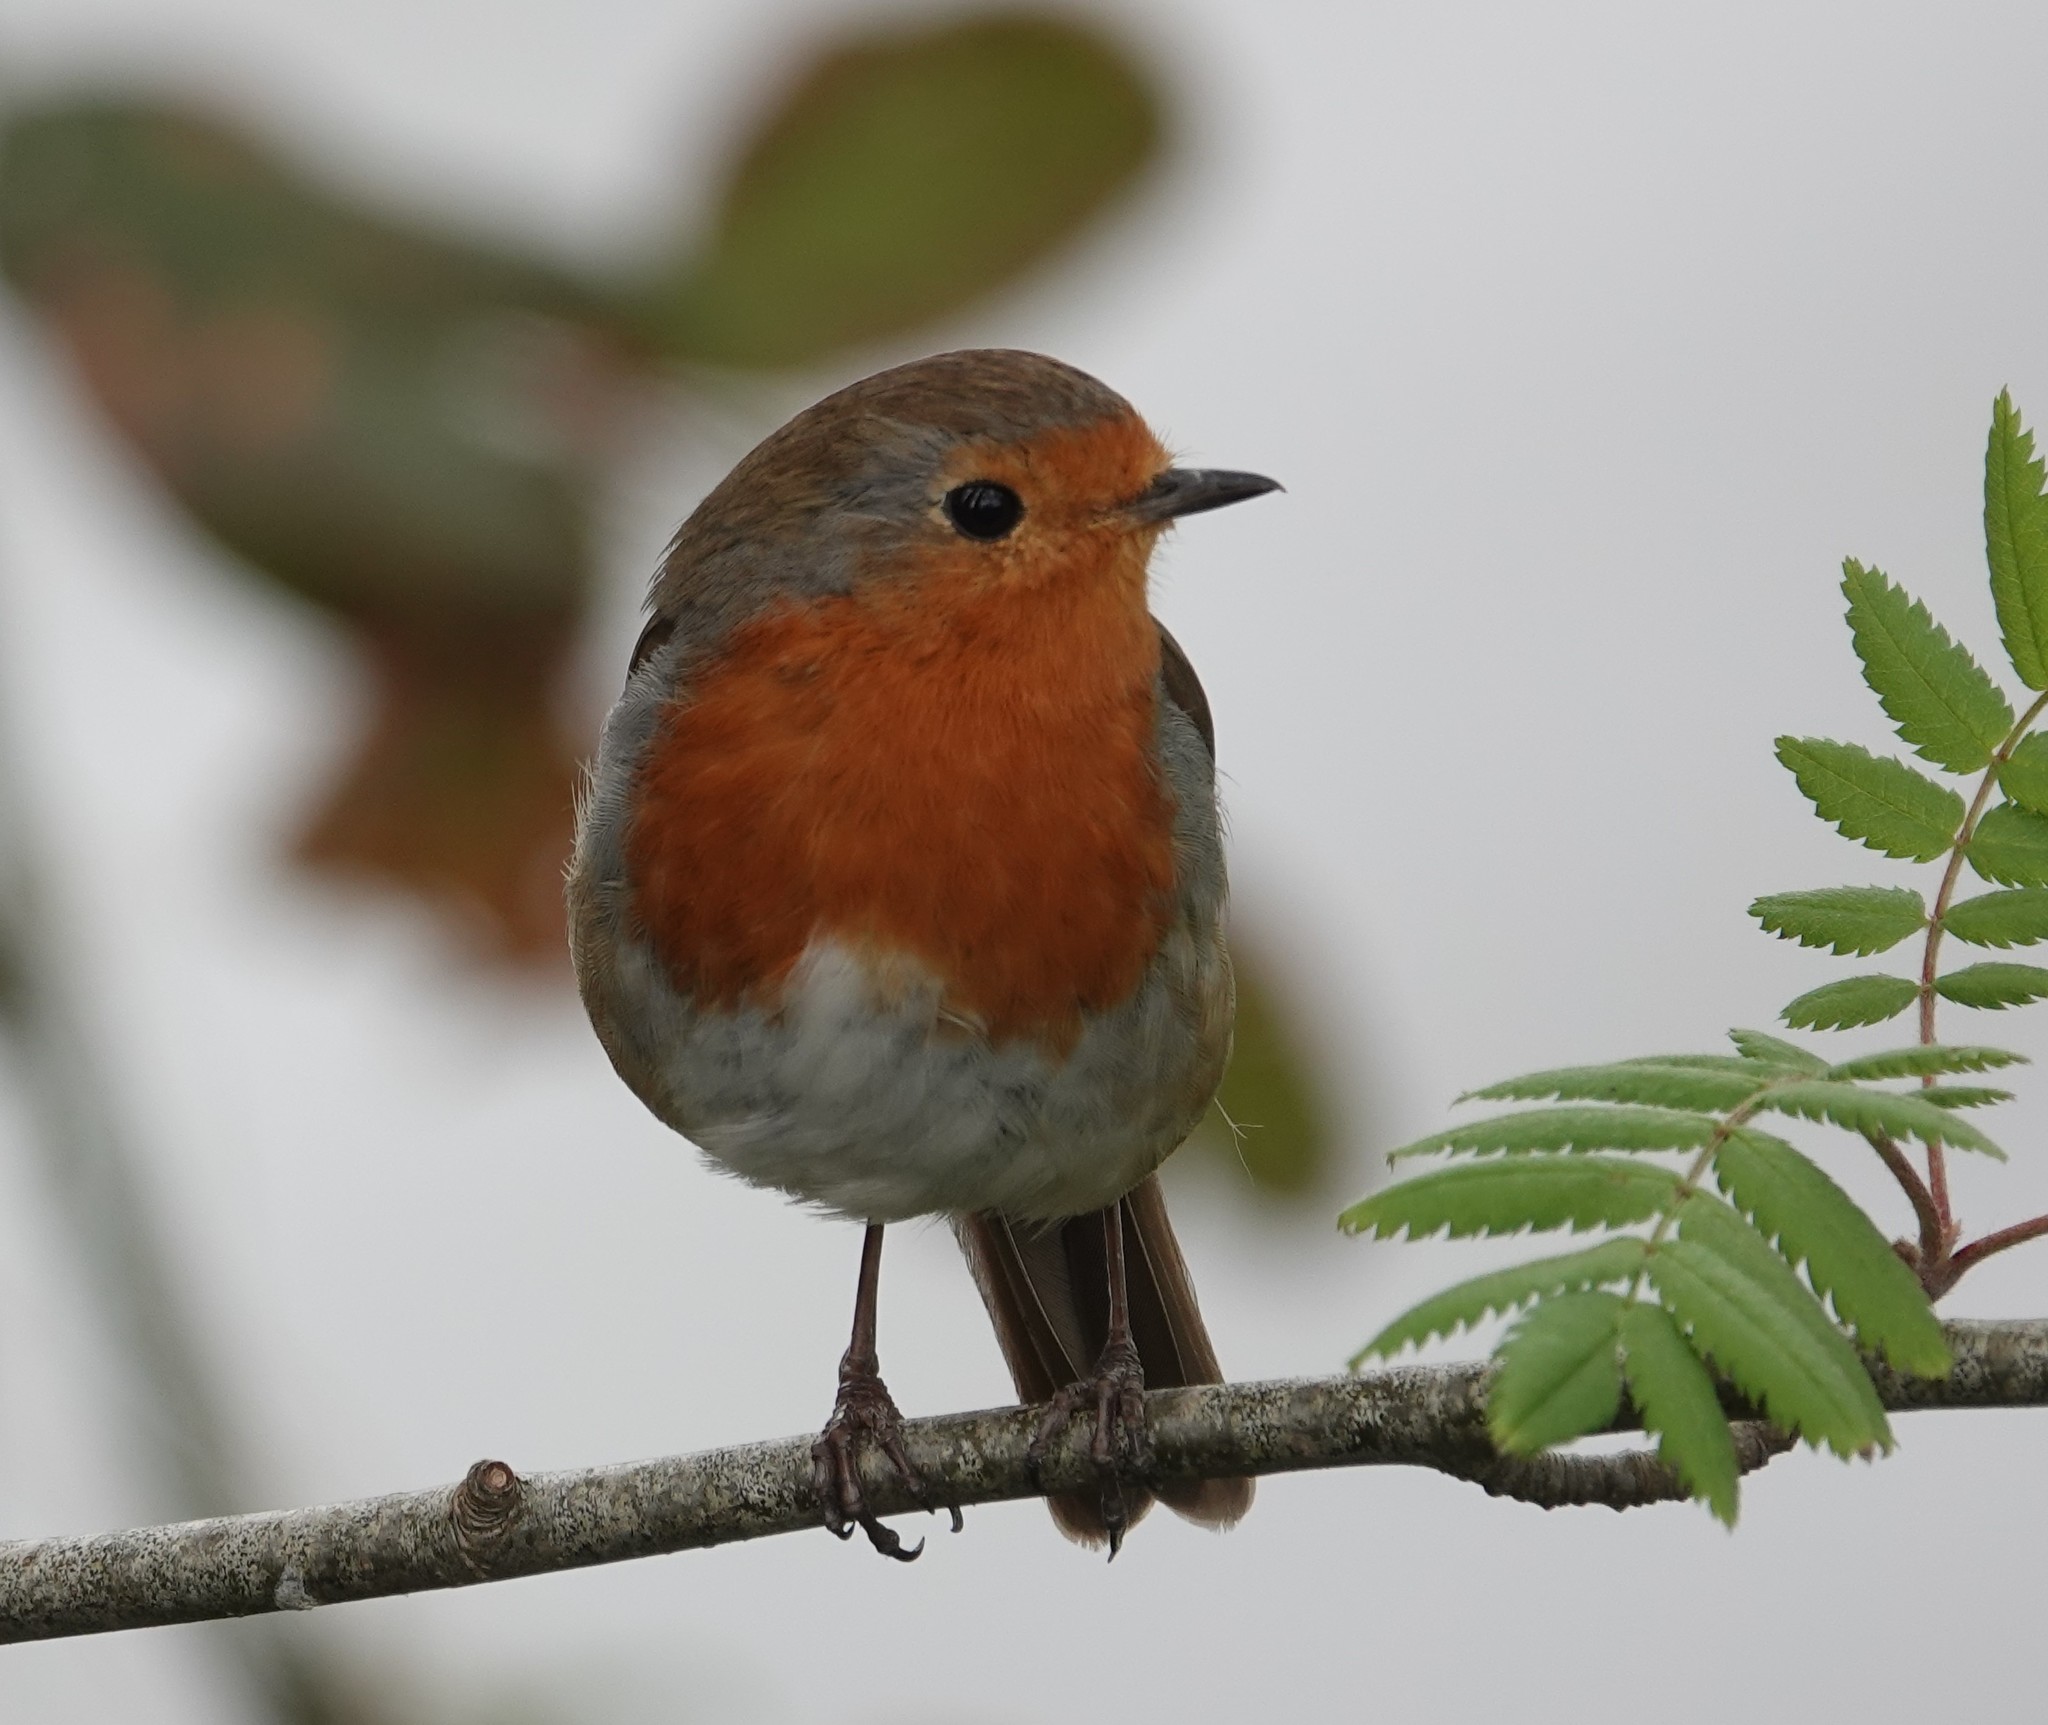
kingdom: Animalia
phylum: Chordata
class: Aves
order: Passeriformes
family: Muscicapidae
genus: Erithacus
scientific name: Erithacus rubecula
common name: European robin
